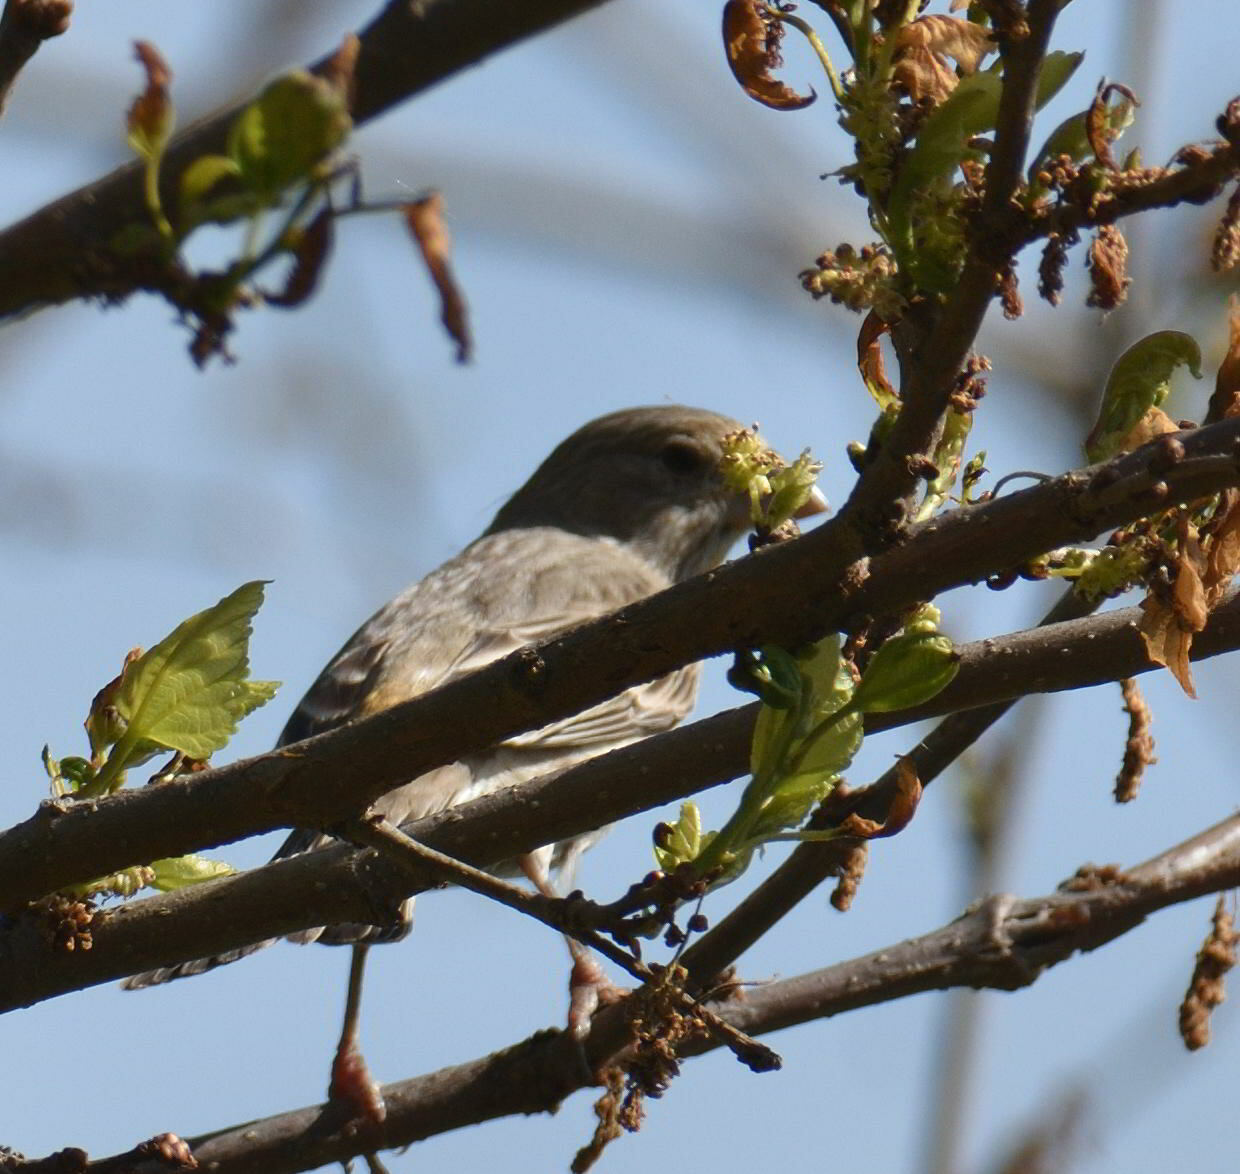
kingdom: Animalia
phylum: Chordata
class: Aves
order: Passeriformes
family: Fringillidae
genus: Haemorhous
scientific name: Haemorhous mexicanus
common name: House finch
